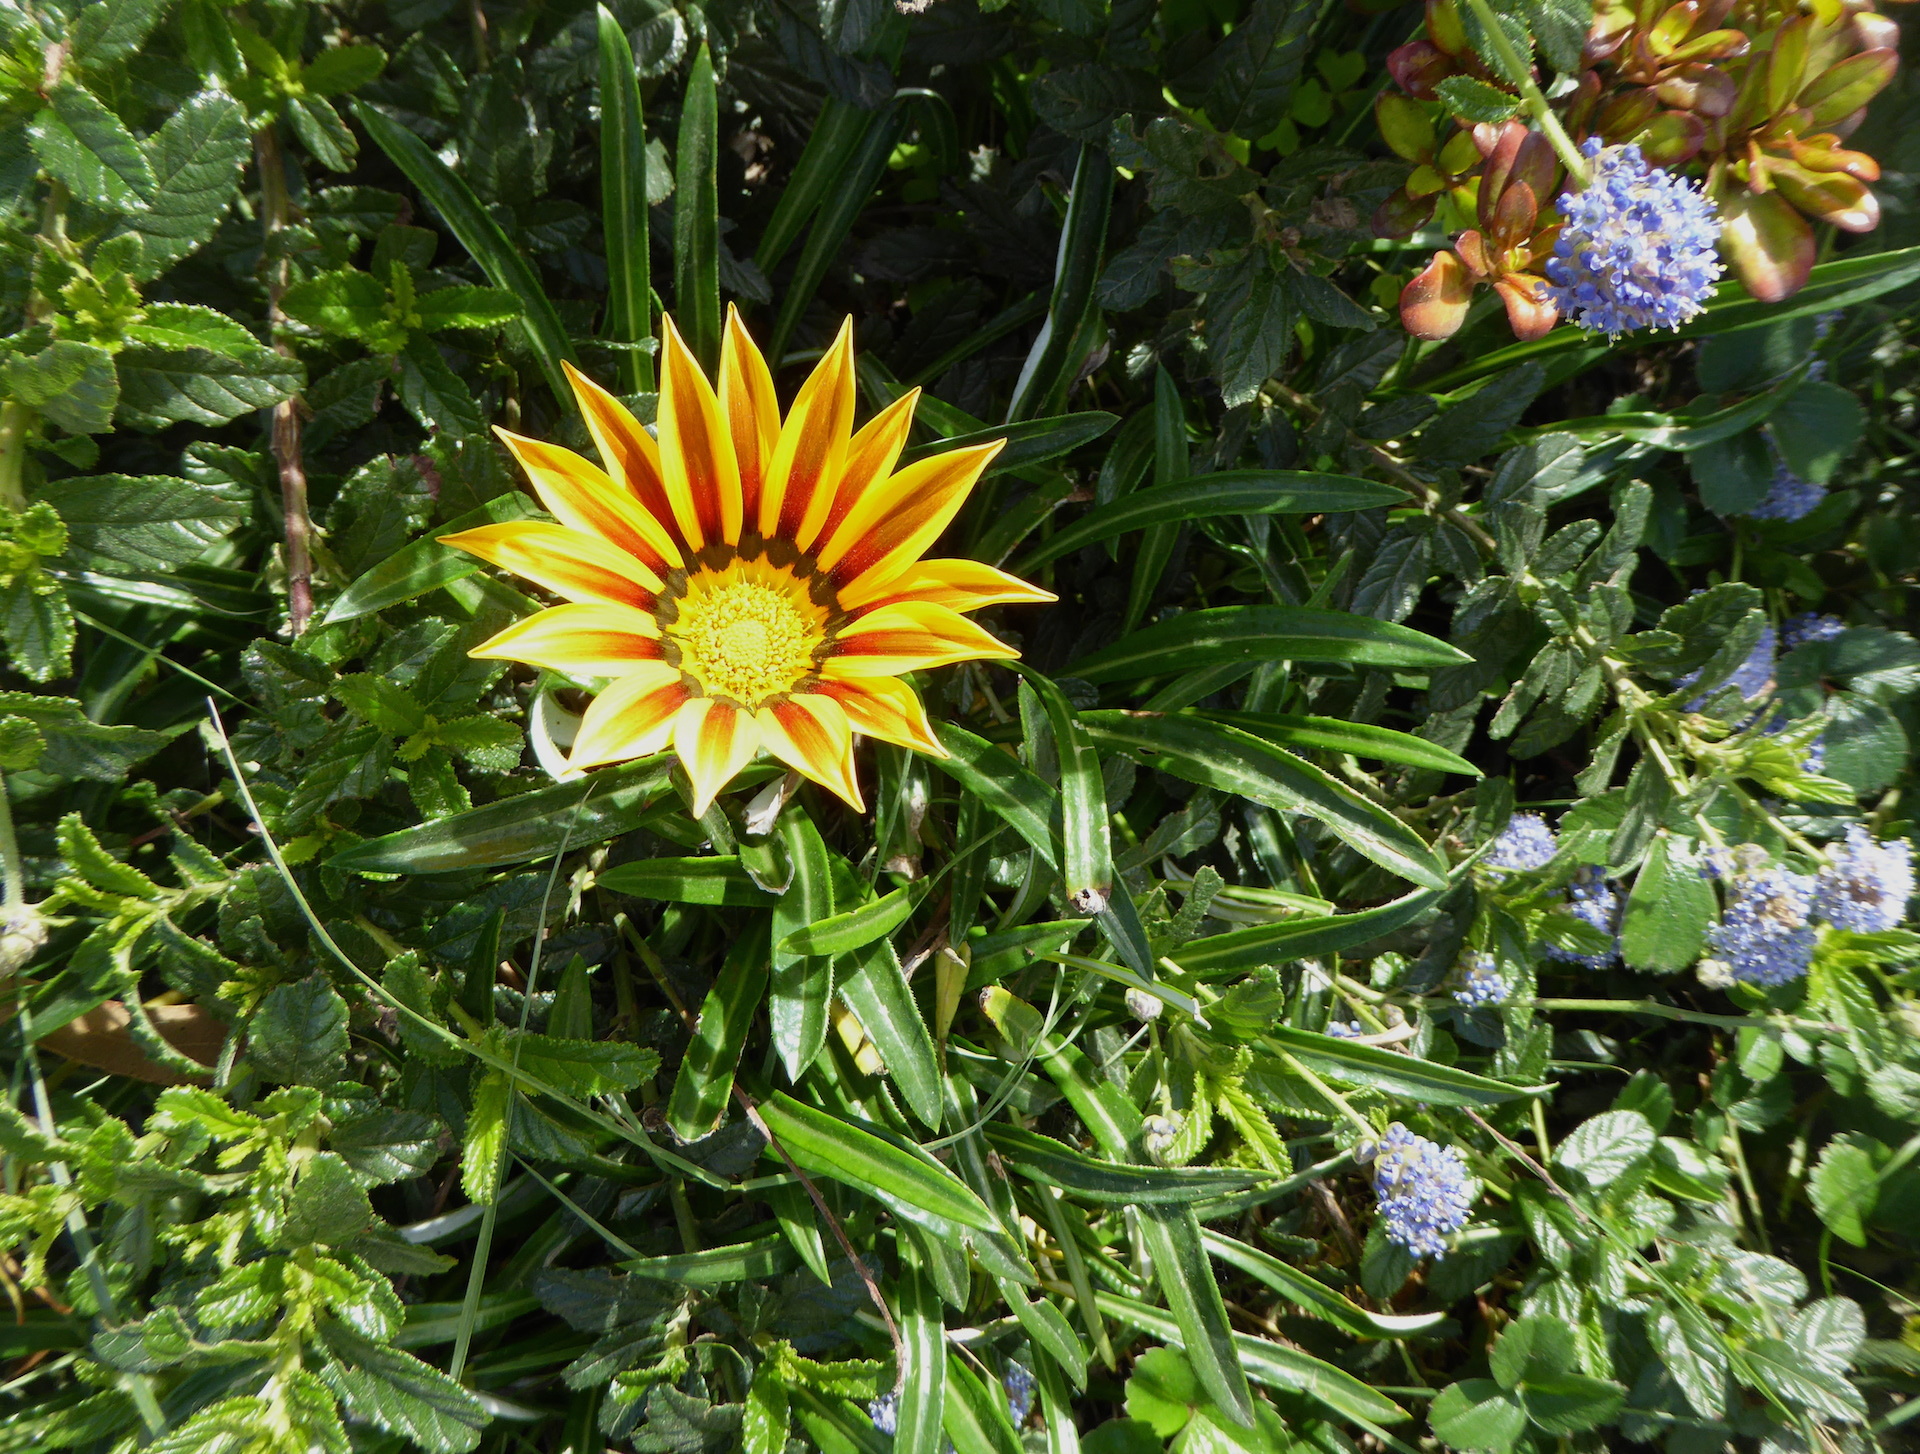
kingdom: Plantae
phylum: Tracheophyta
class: Magnoliopsida
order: Asterales
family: Asteraceae
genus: Gazania
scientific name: Gazania linearis
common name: Treasureflower
